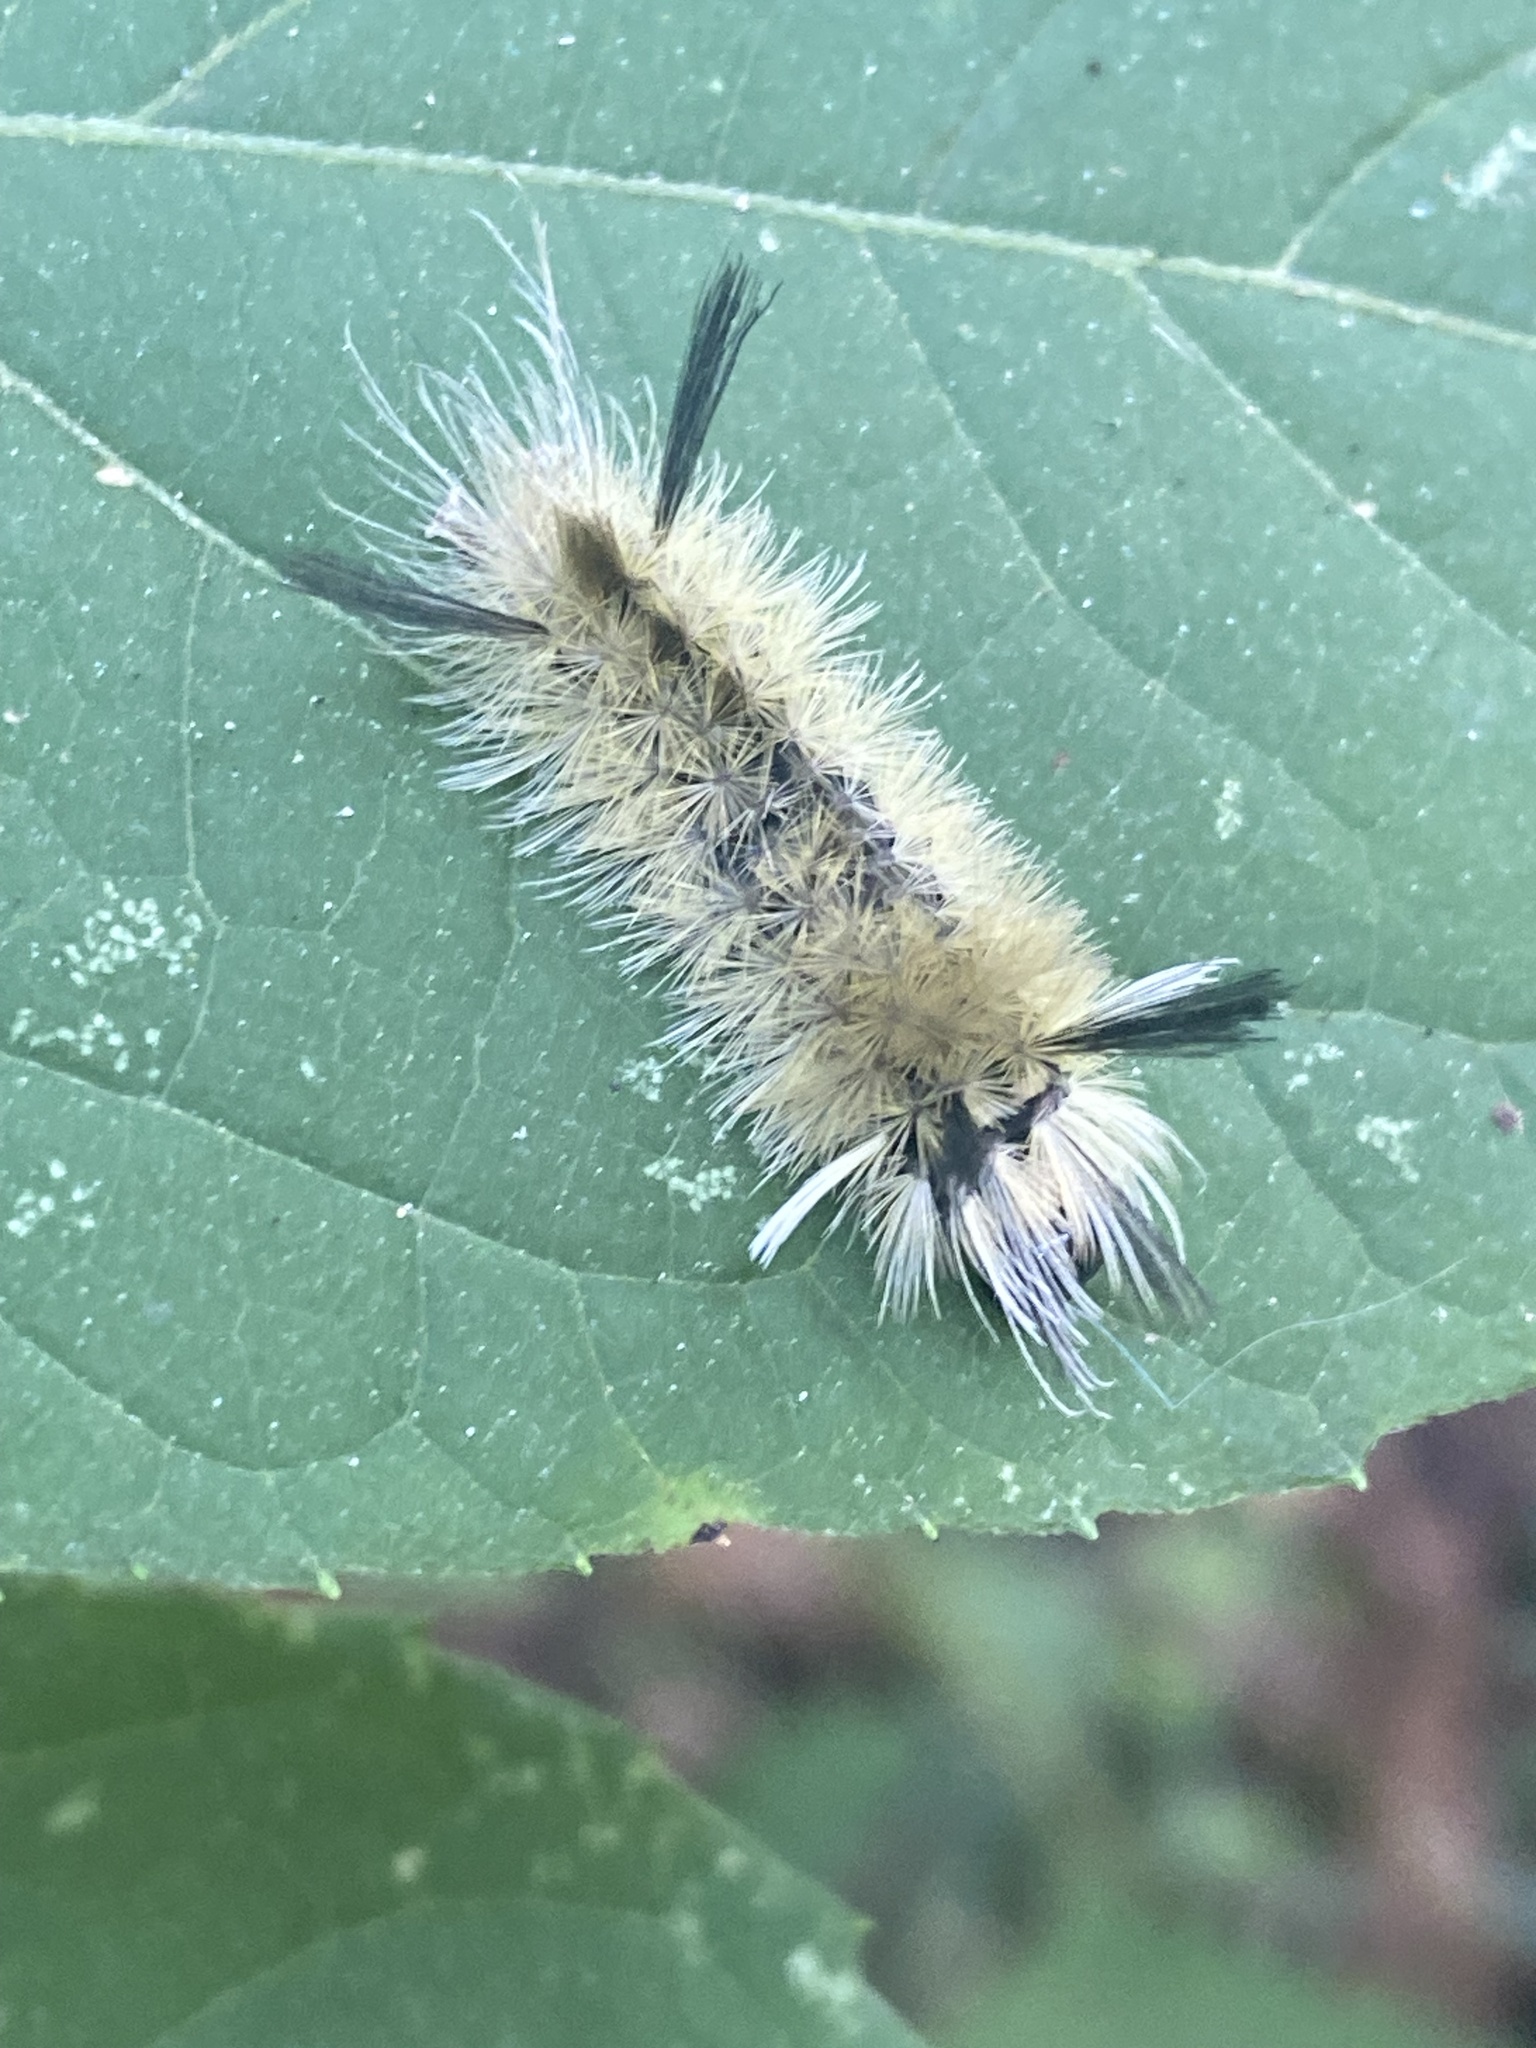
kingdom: Animalia
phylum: Arthropoda
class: Insecta
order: Lepidoptera
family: Erebidae
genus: Halysidota
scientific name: Halysidota tessellaris
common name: Banded tussock moth
